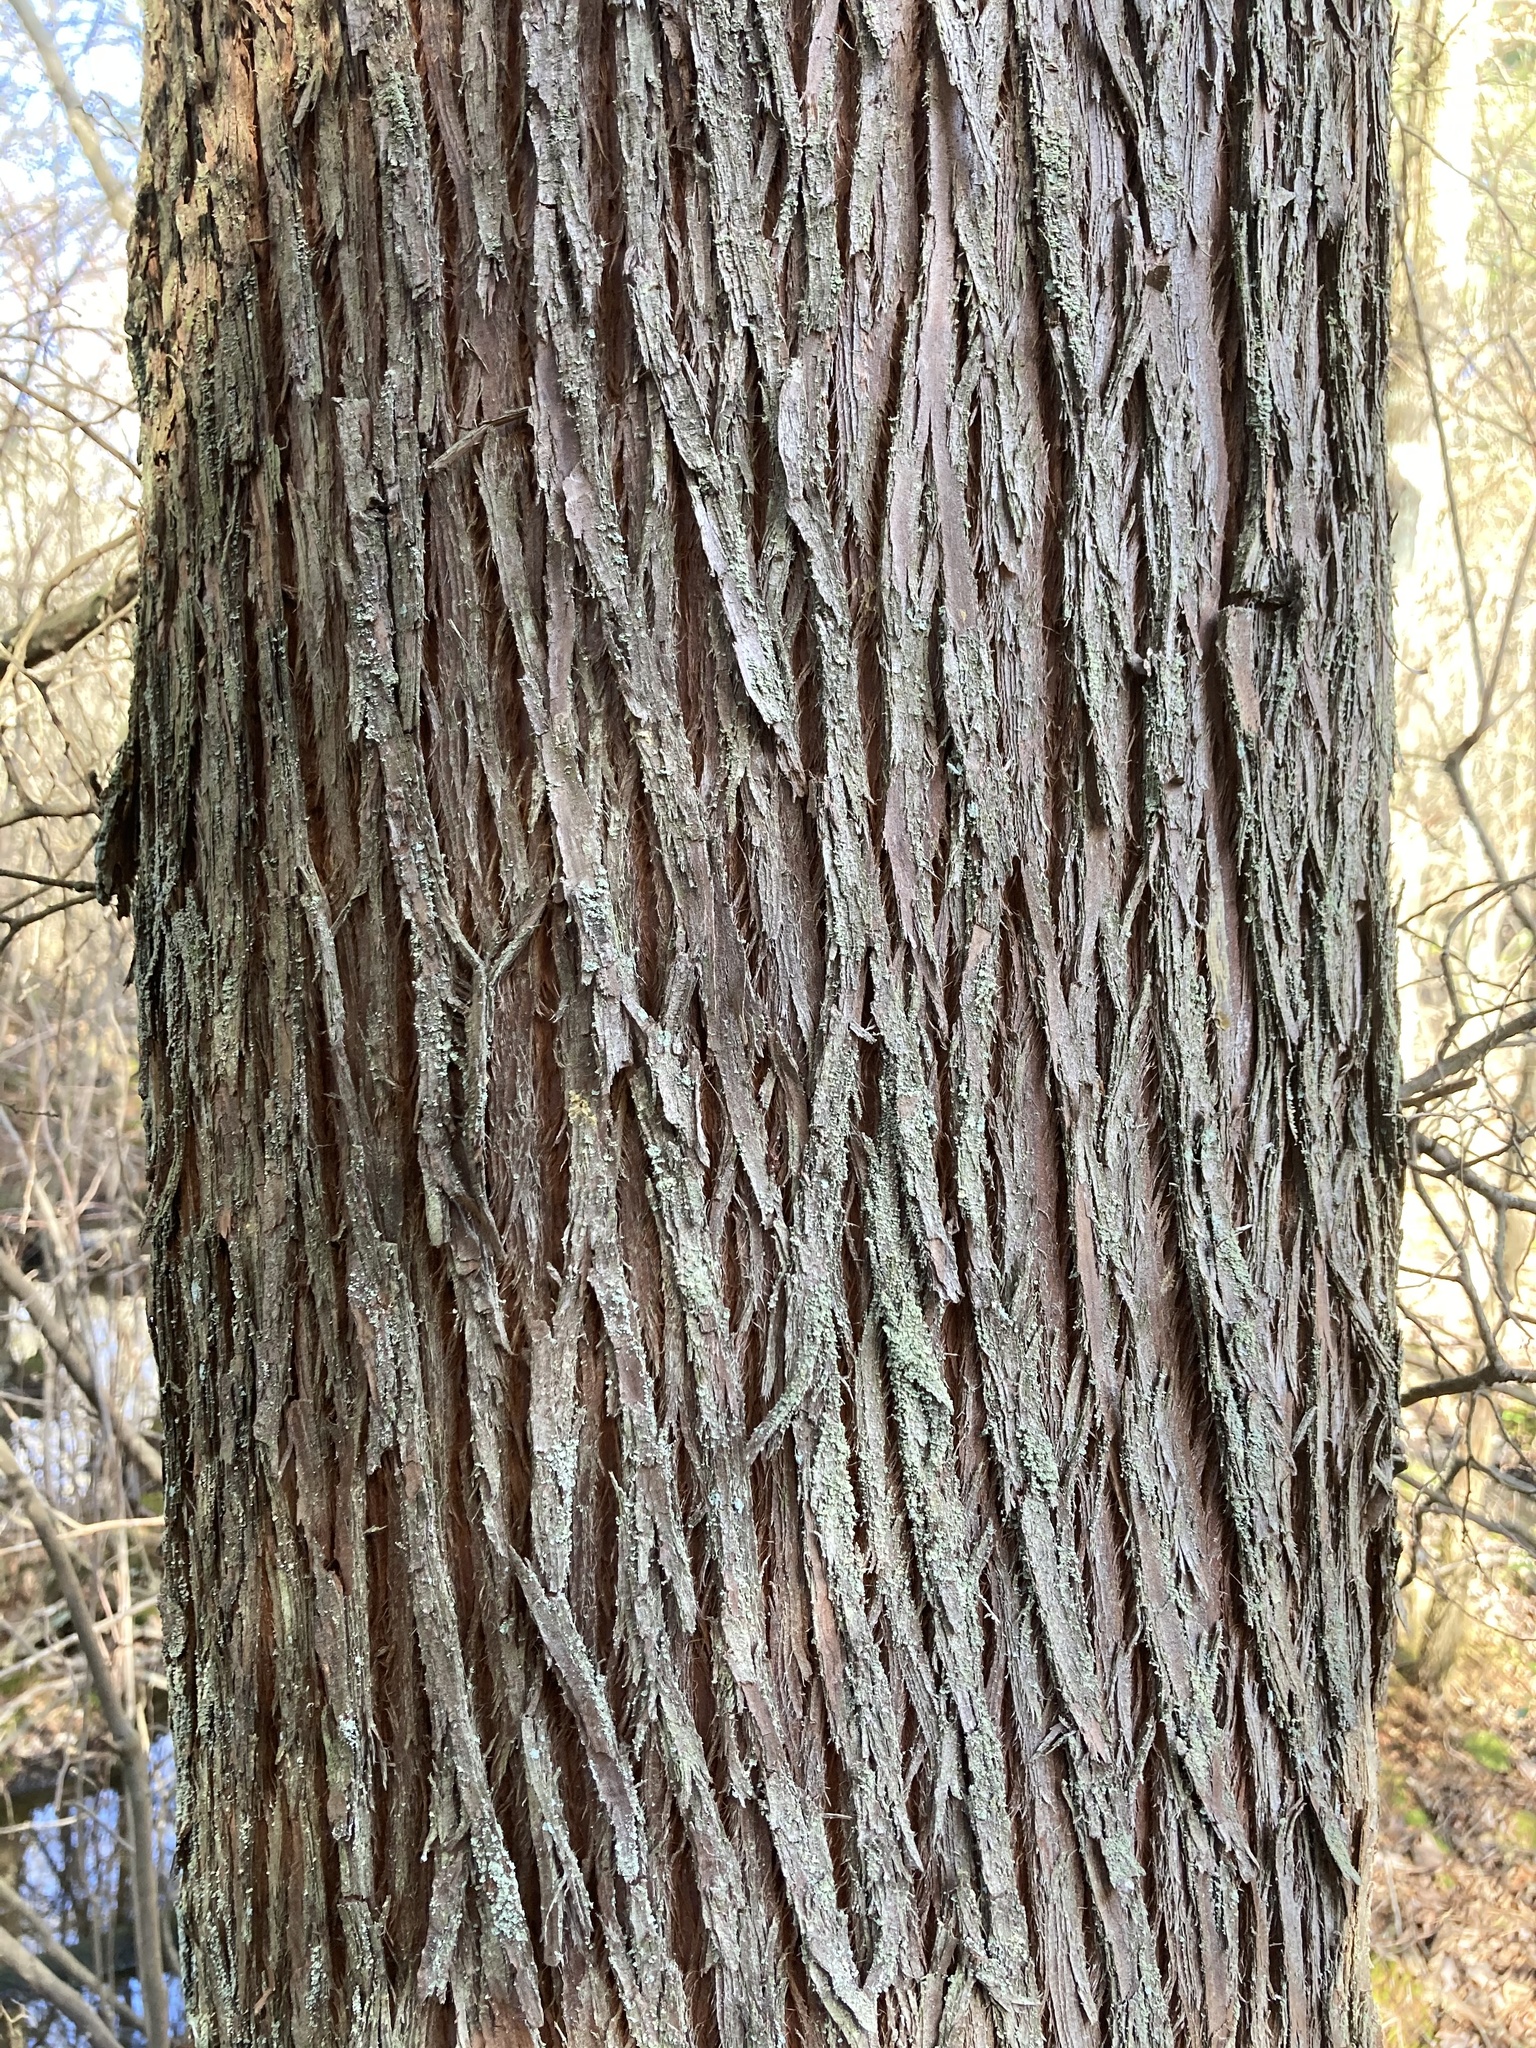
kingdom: Plantae
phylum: Tracheophyta
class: Pinopsida
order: Pinales
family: Cupressaceae
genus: Chamaecyparis
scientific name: Chamaecyparis thyoides
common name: Atlantic white cedar
